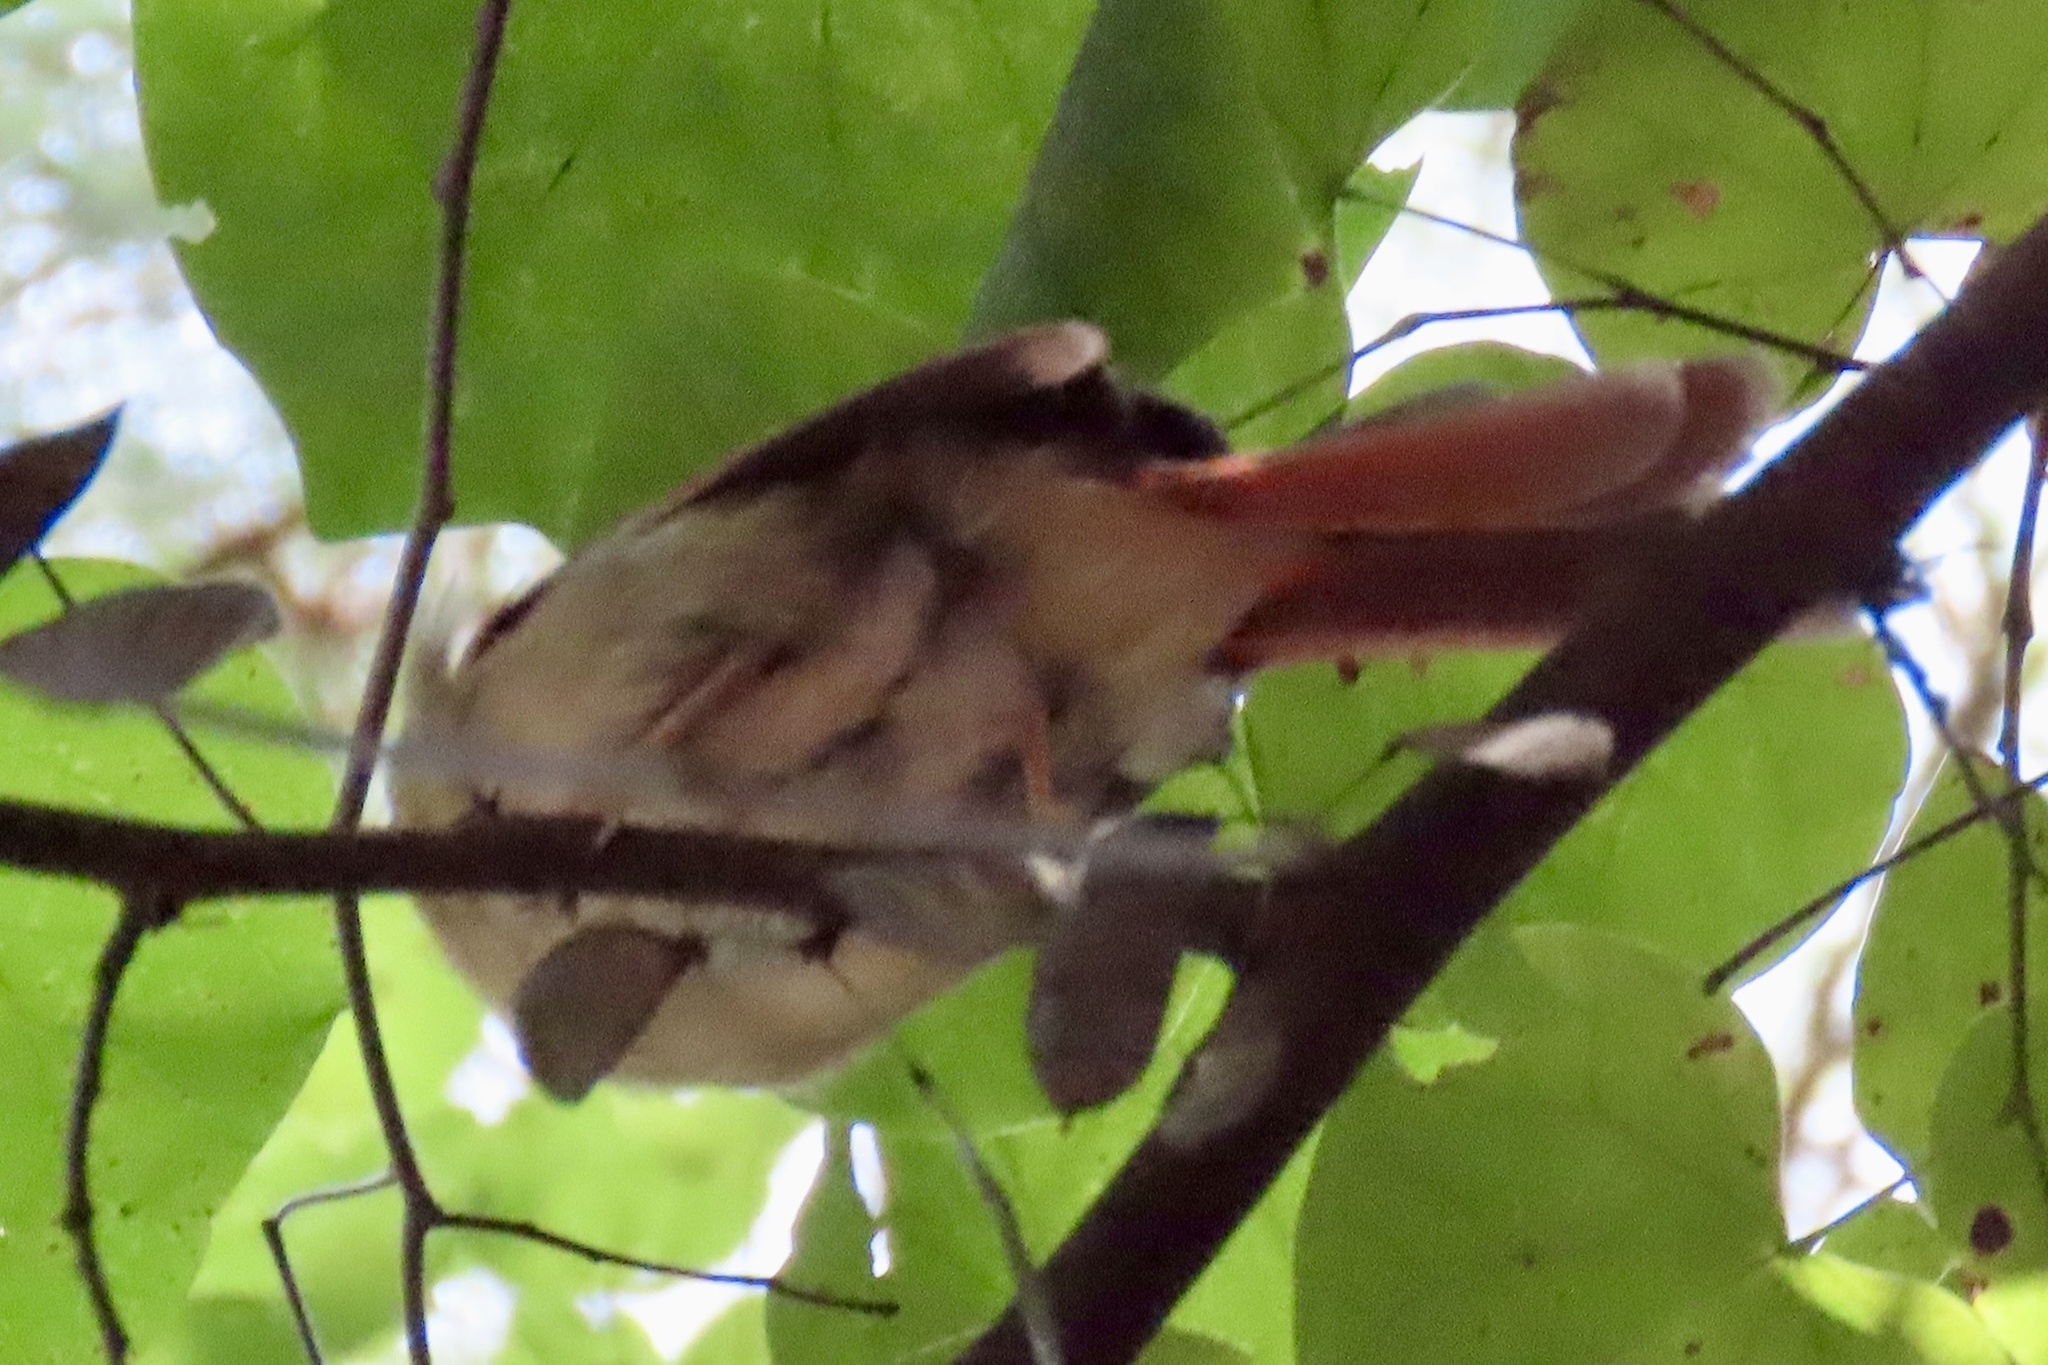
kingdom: Animalia
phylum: Chordata
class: Aves
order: Passeriformes
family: Cardinalidae
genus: Cardinalis
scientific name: Cardinalis cardinalis
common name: Northern cardinal
